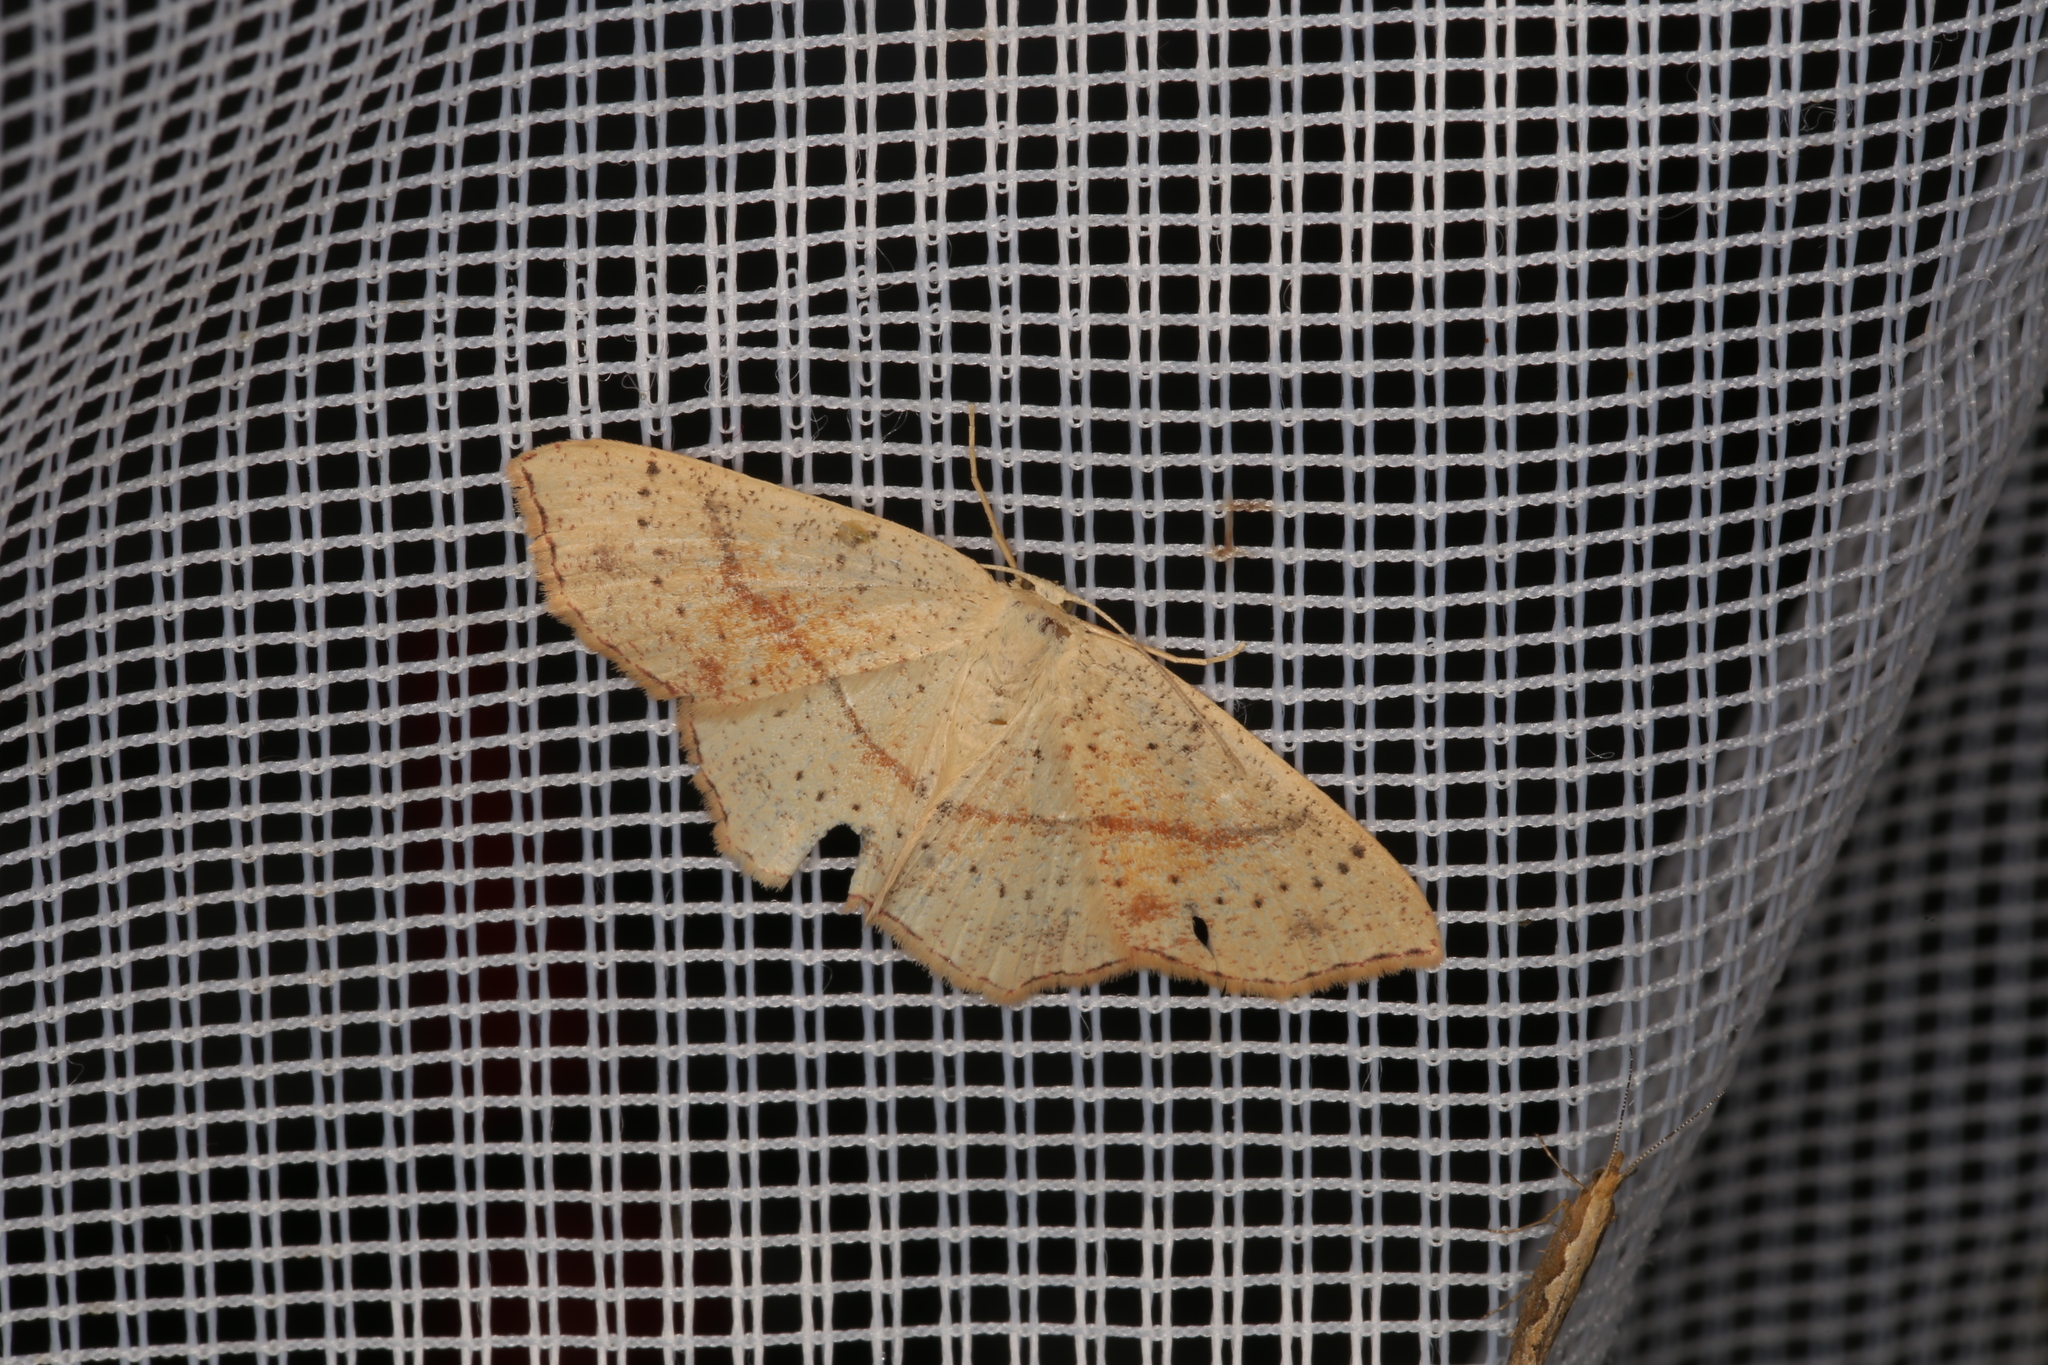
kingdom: Animalia
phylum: Arthropoda
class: Insecta
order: Lepidoptera
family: Geometridae
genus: Cyclophora
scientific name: Cyclophora punctaria
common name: Maiden's blush
